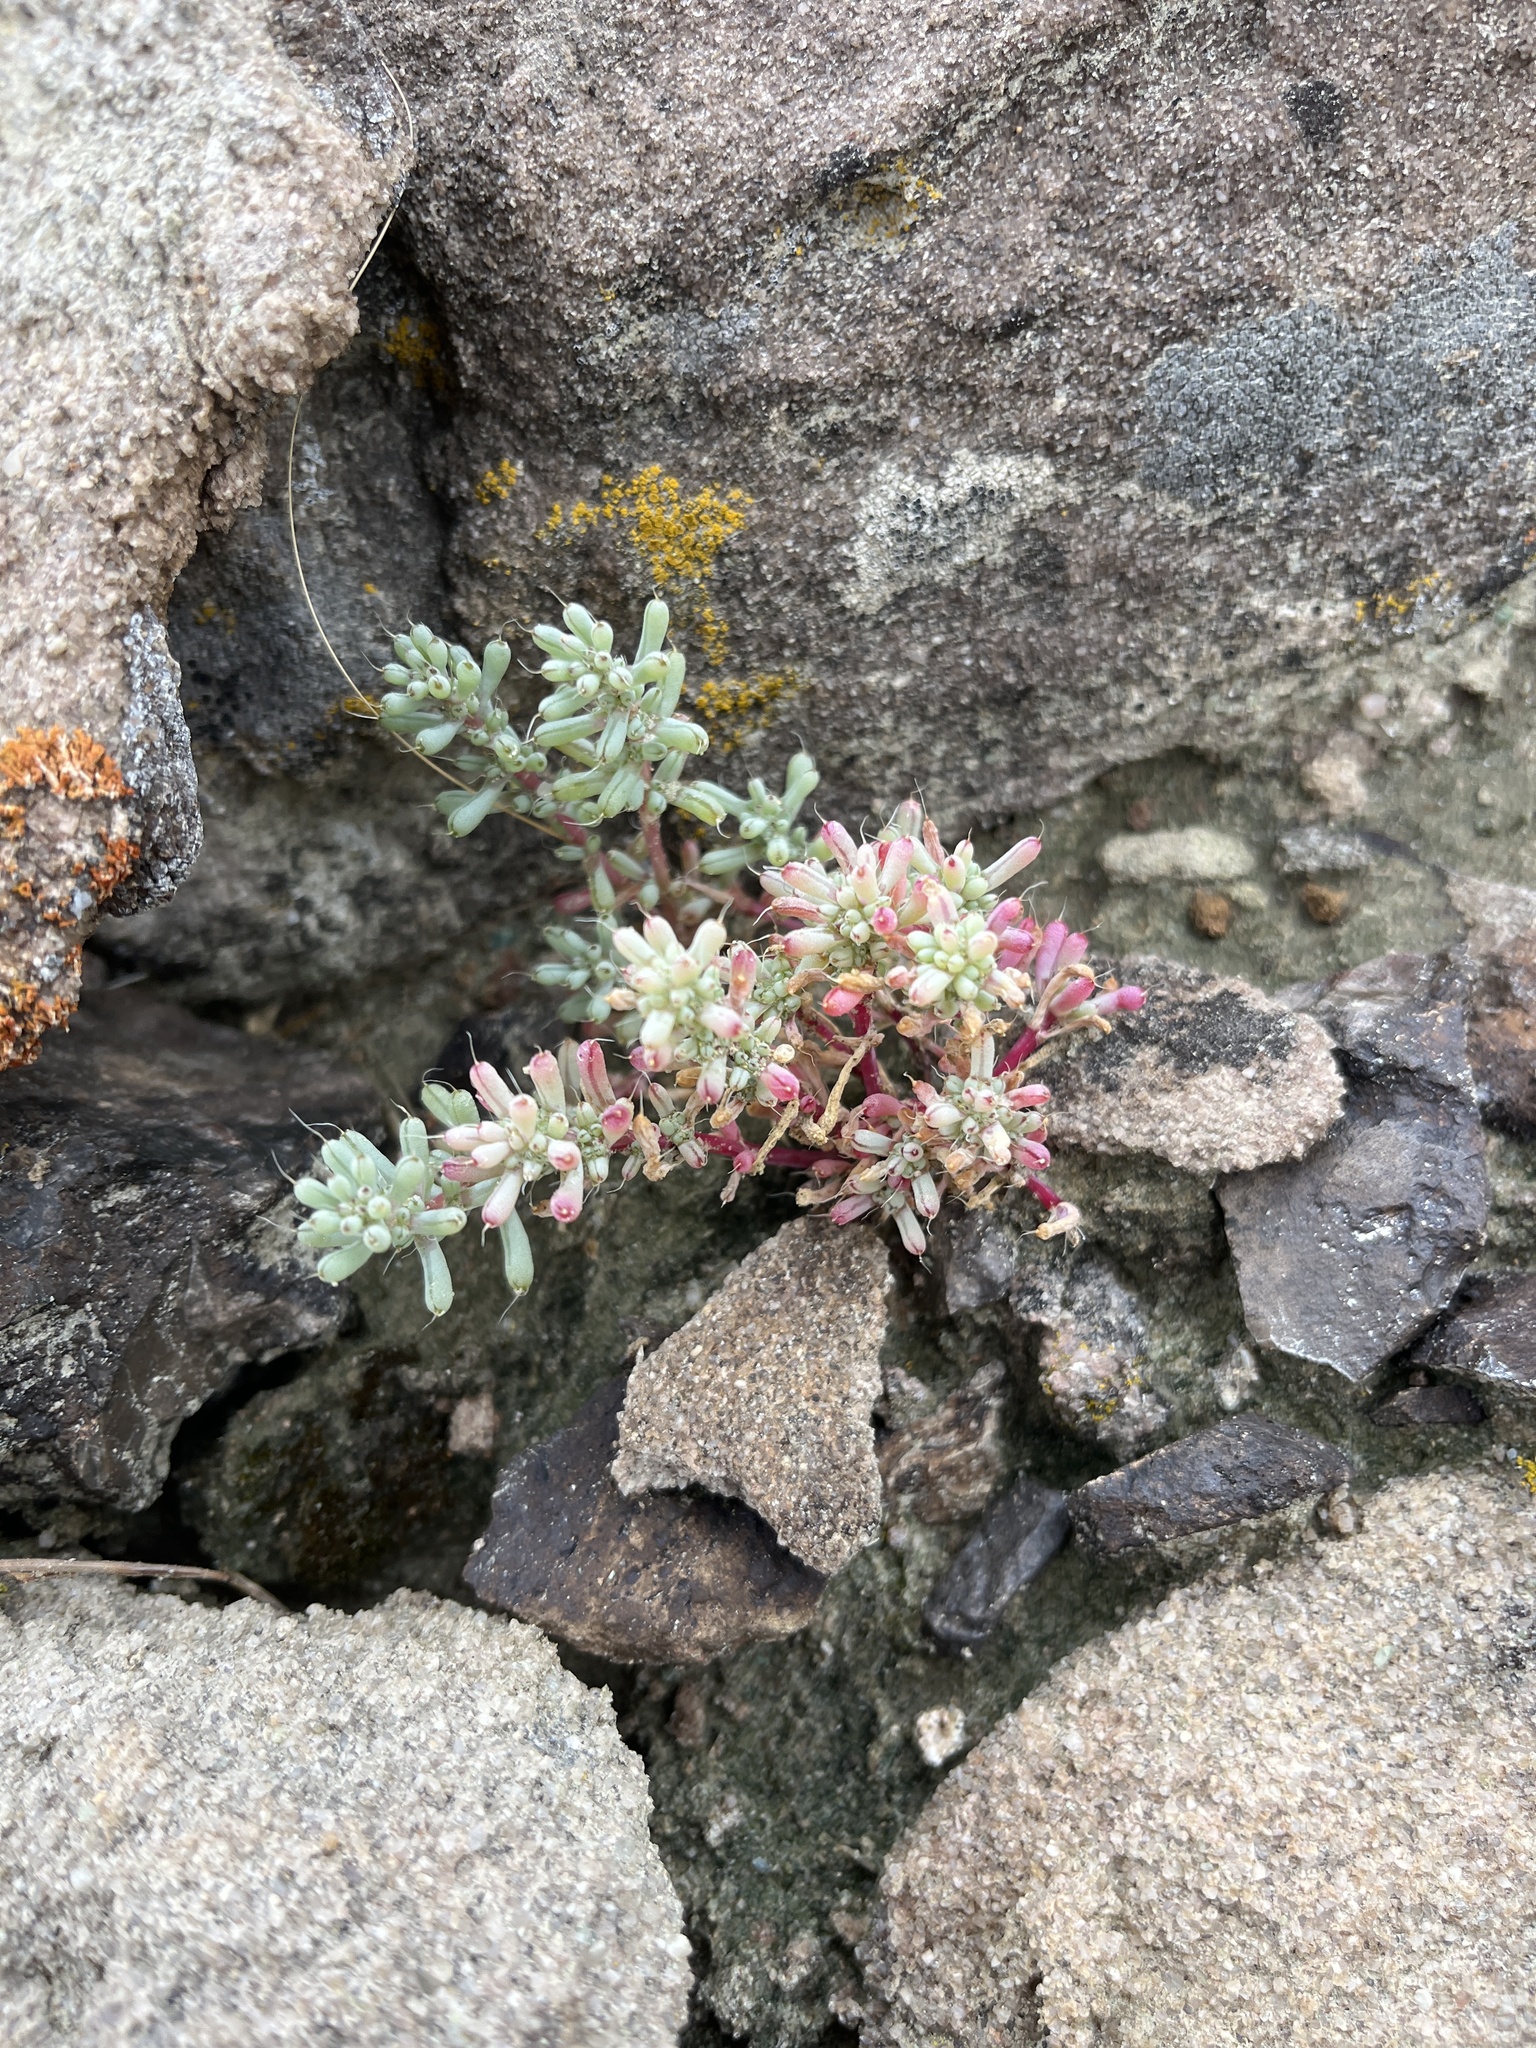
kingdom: Plantae
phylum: Tracheophyta
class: Magnoliopsida
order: Caryophyllales
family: Amaranthaceae
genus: Halogeton
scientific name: Halogeton glomeratus
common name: Saltlover
